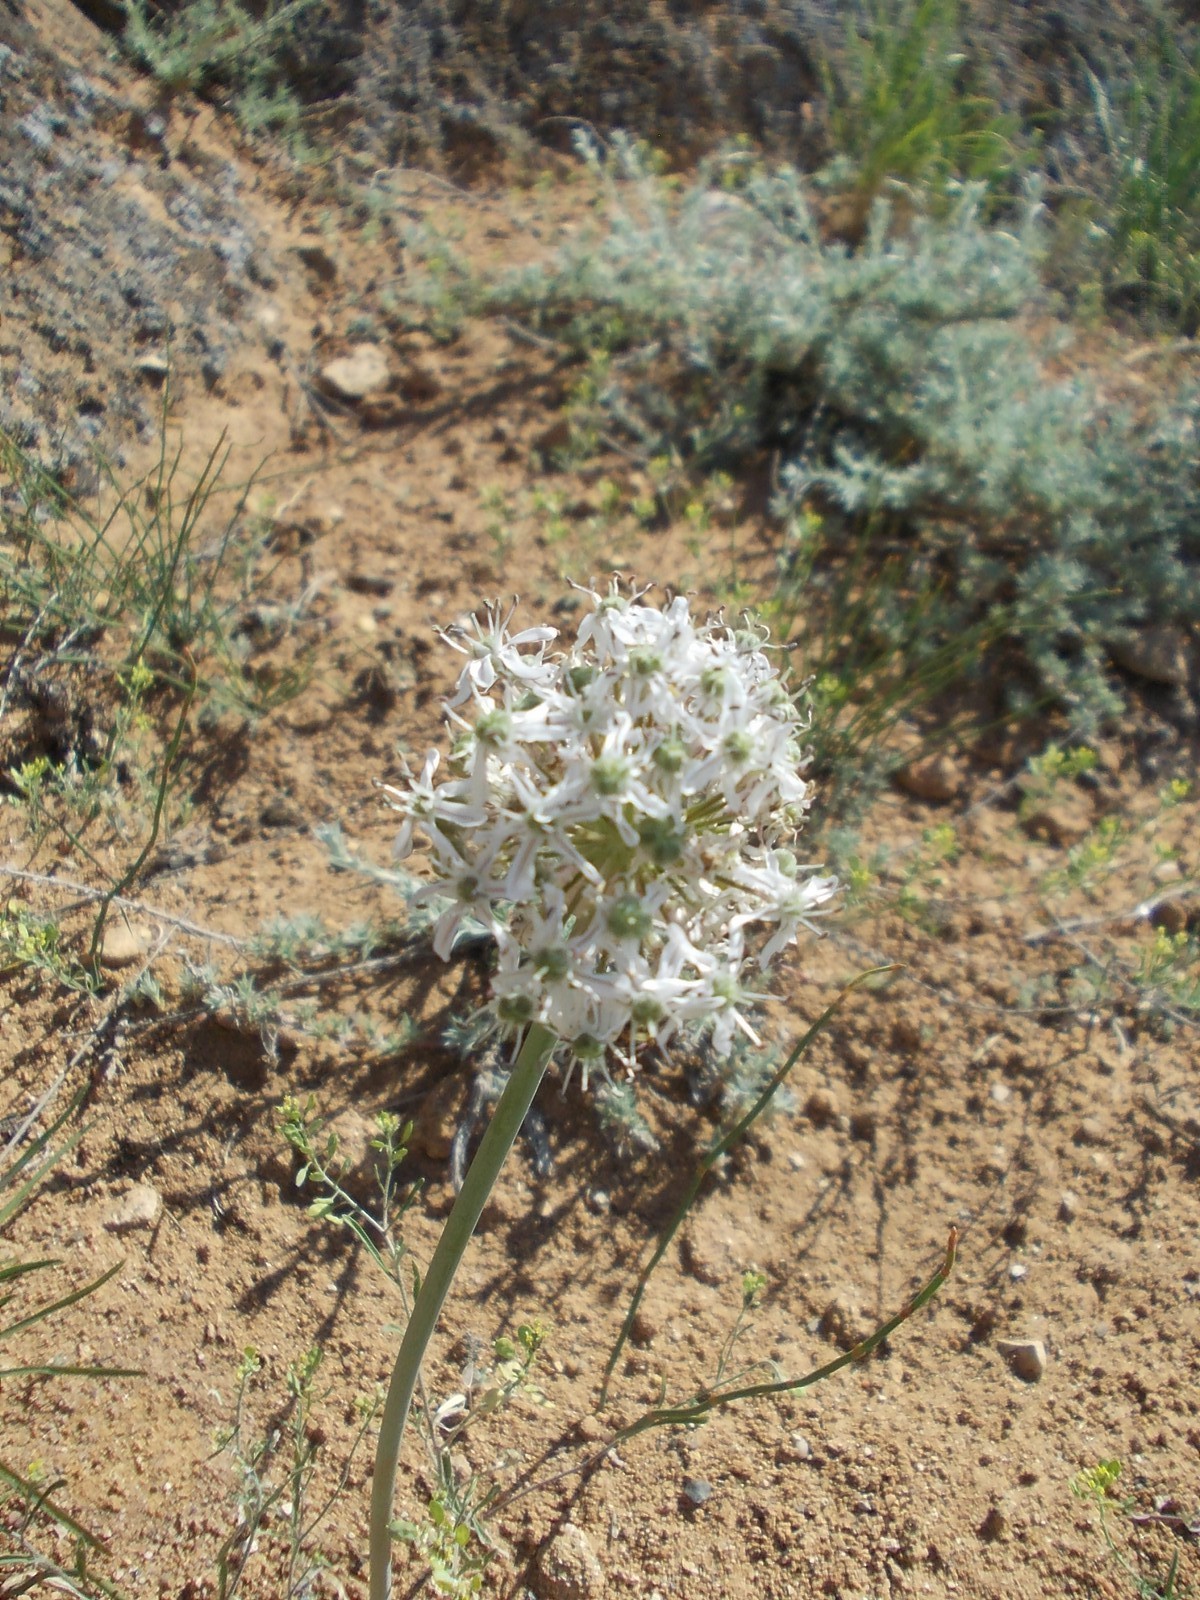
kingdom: Plantae
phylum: Tracheophyta
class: Liliopsida
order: Asparagales
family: Amaryllidaceae
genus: Allium
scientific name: Allium tulipifolium
